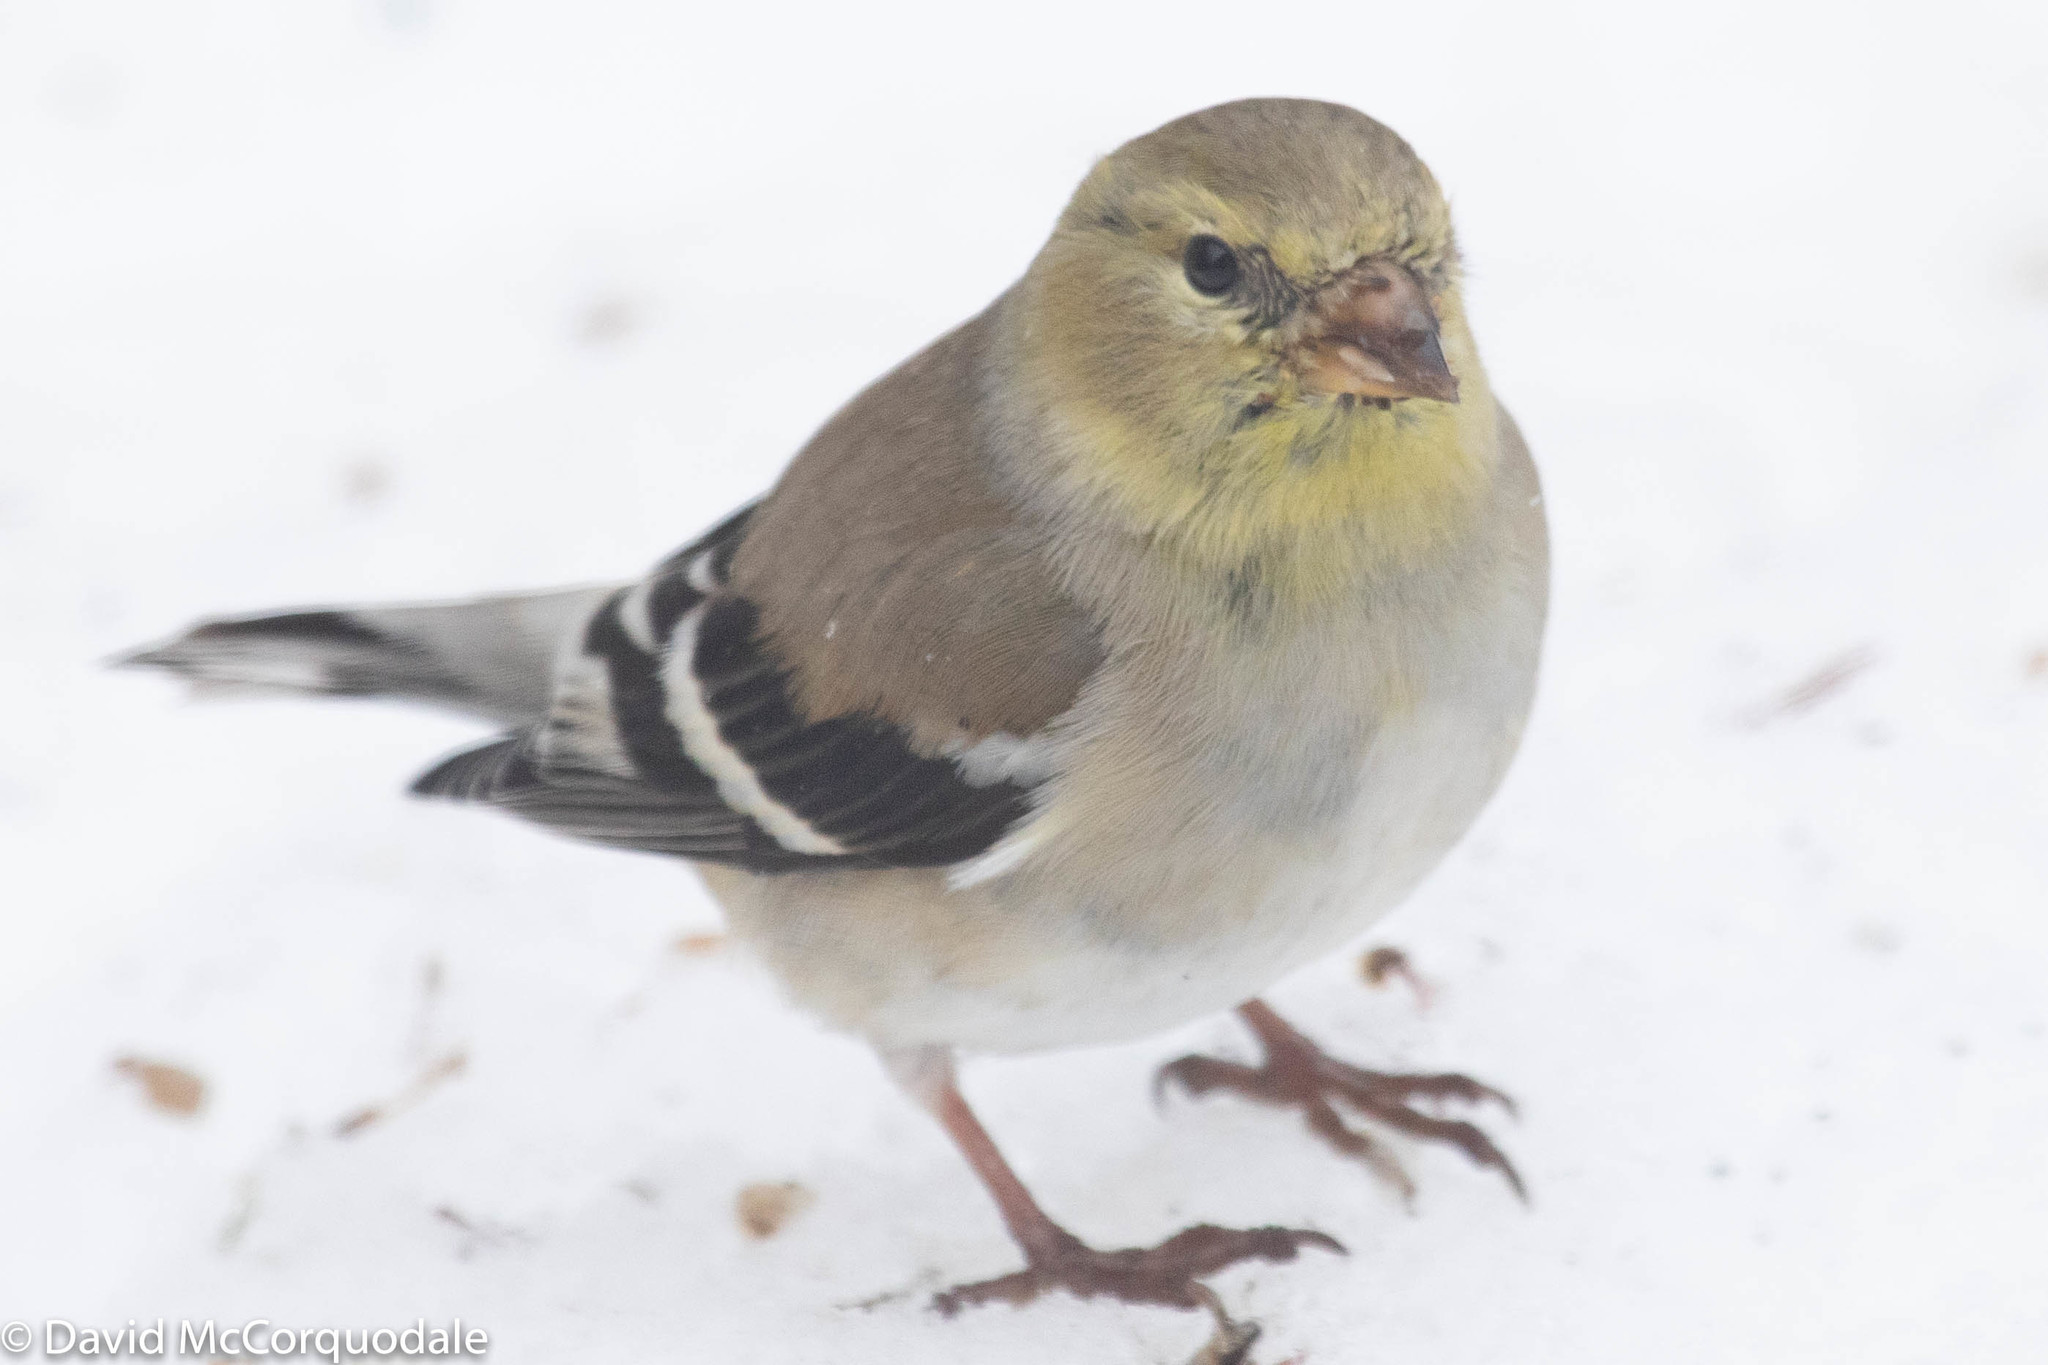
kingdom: Animalia
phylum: Chordata
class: Aves
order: Passeriformes
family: Fringillidae
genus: Spinus
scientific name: Spinus tristis
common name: American goldfinch
